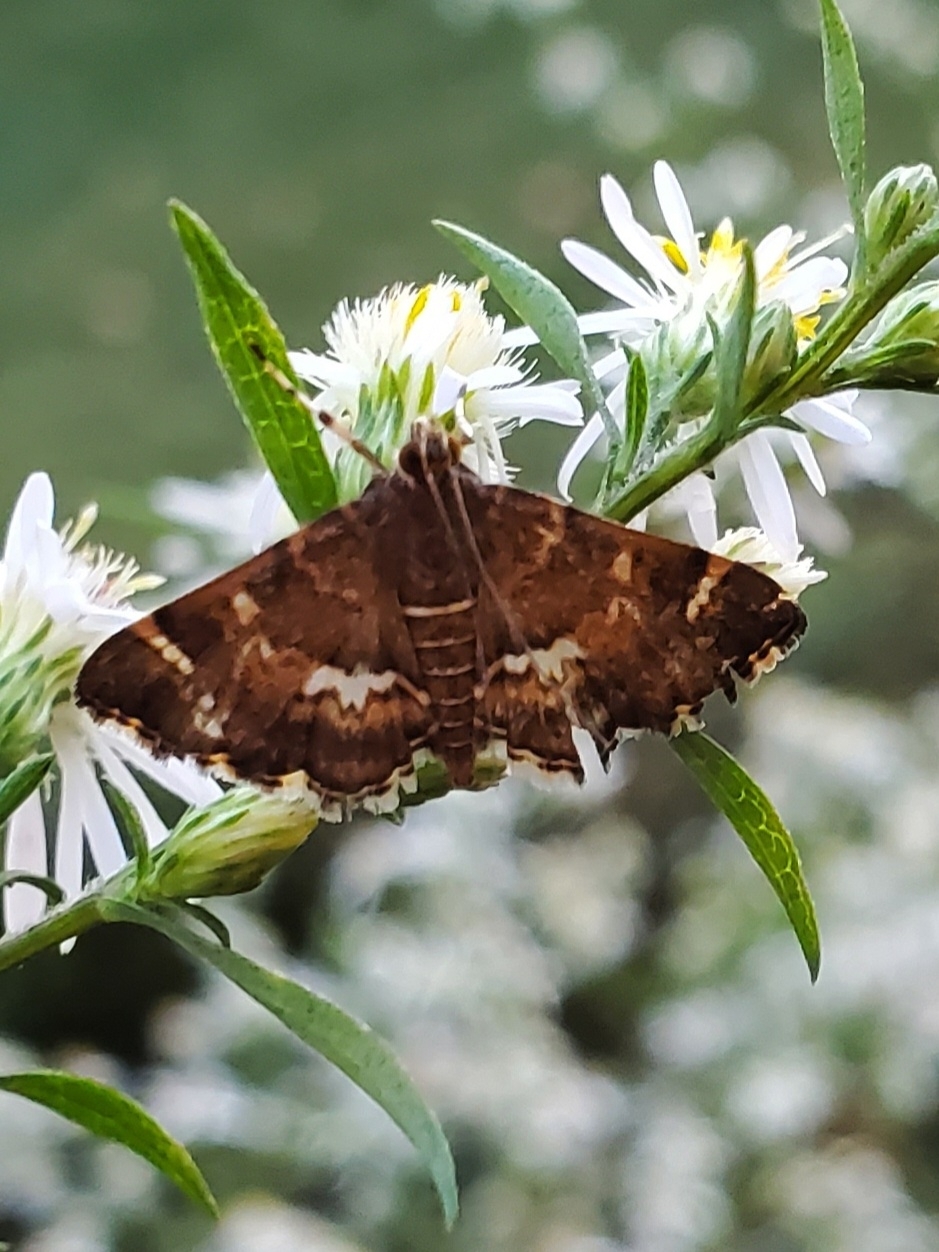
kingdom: Animalia
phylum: Arthropoda
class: Insecta
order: Lepidoptera
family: Crambidae
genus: Hymenia
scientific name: Hymenia perspectalis
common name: Spotted beet webworm
